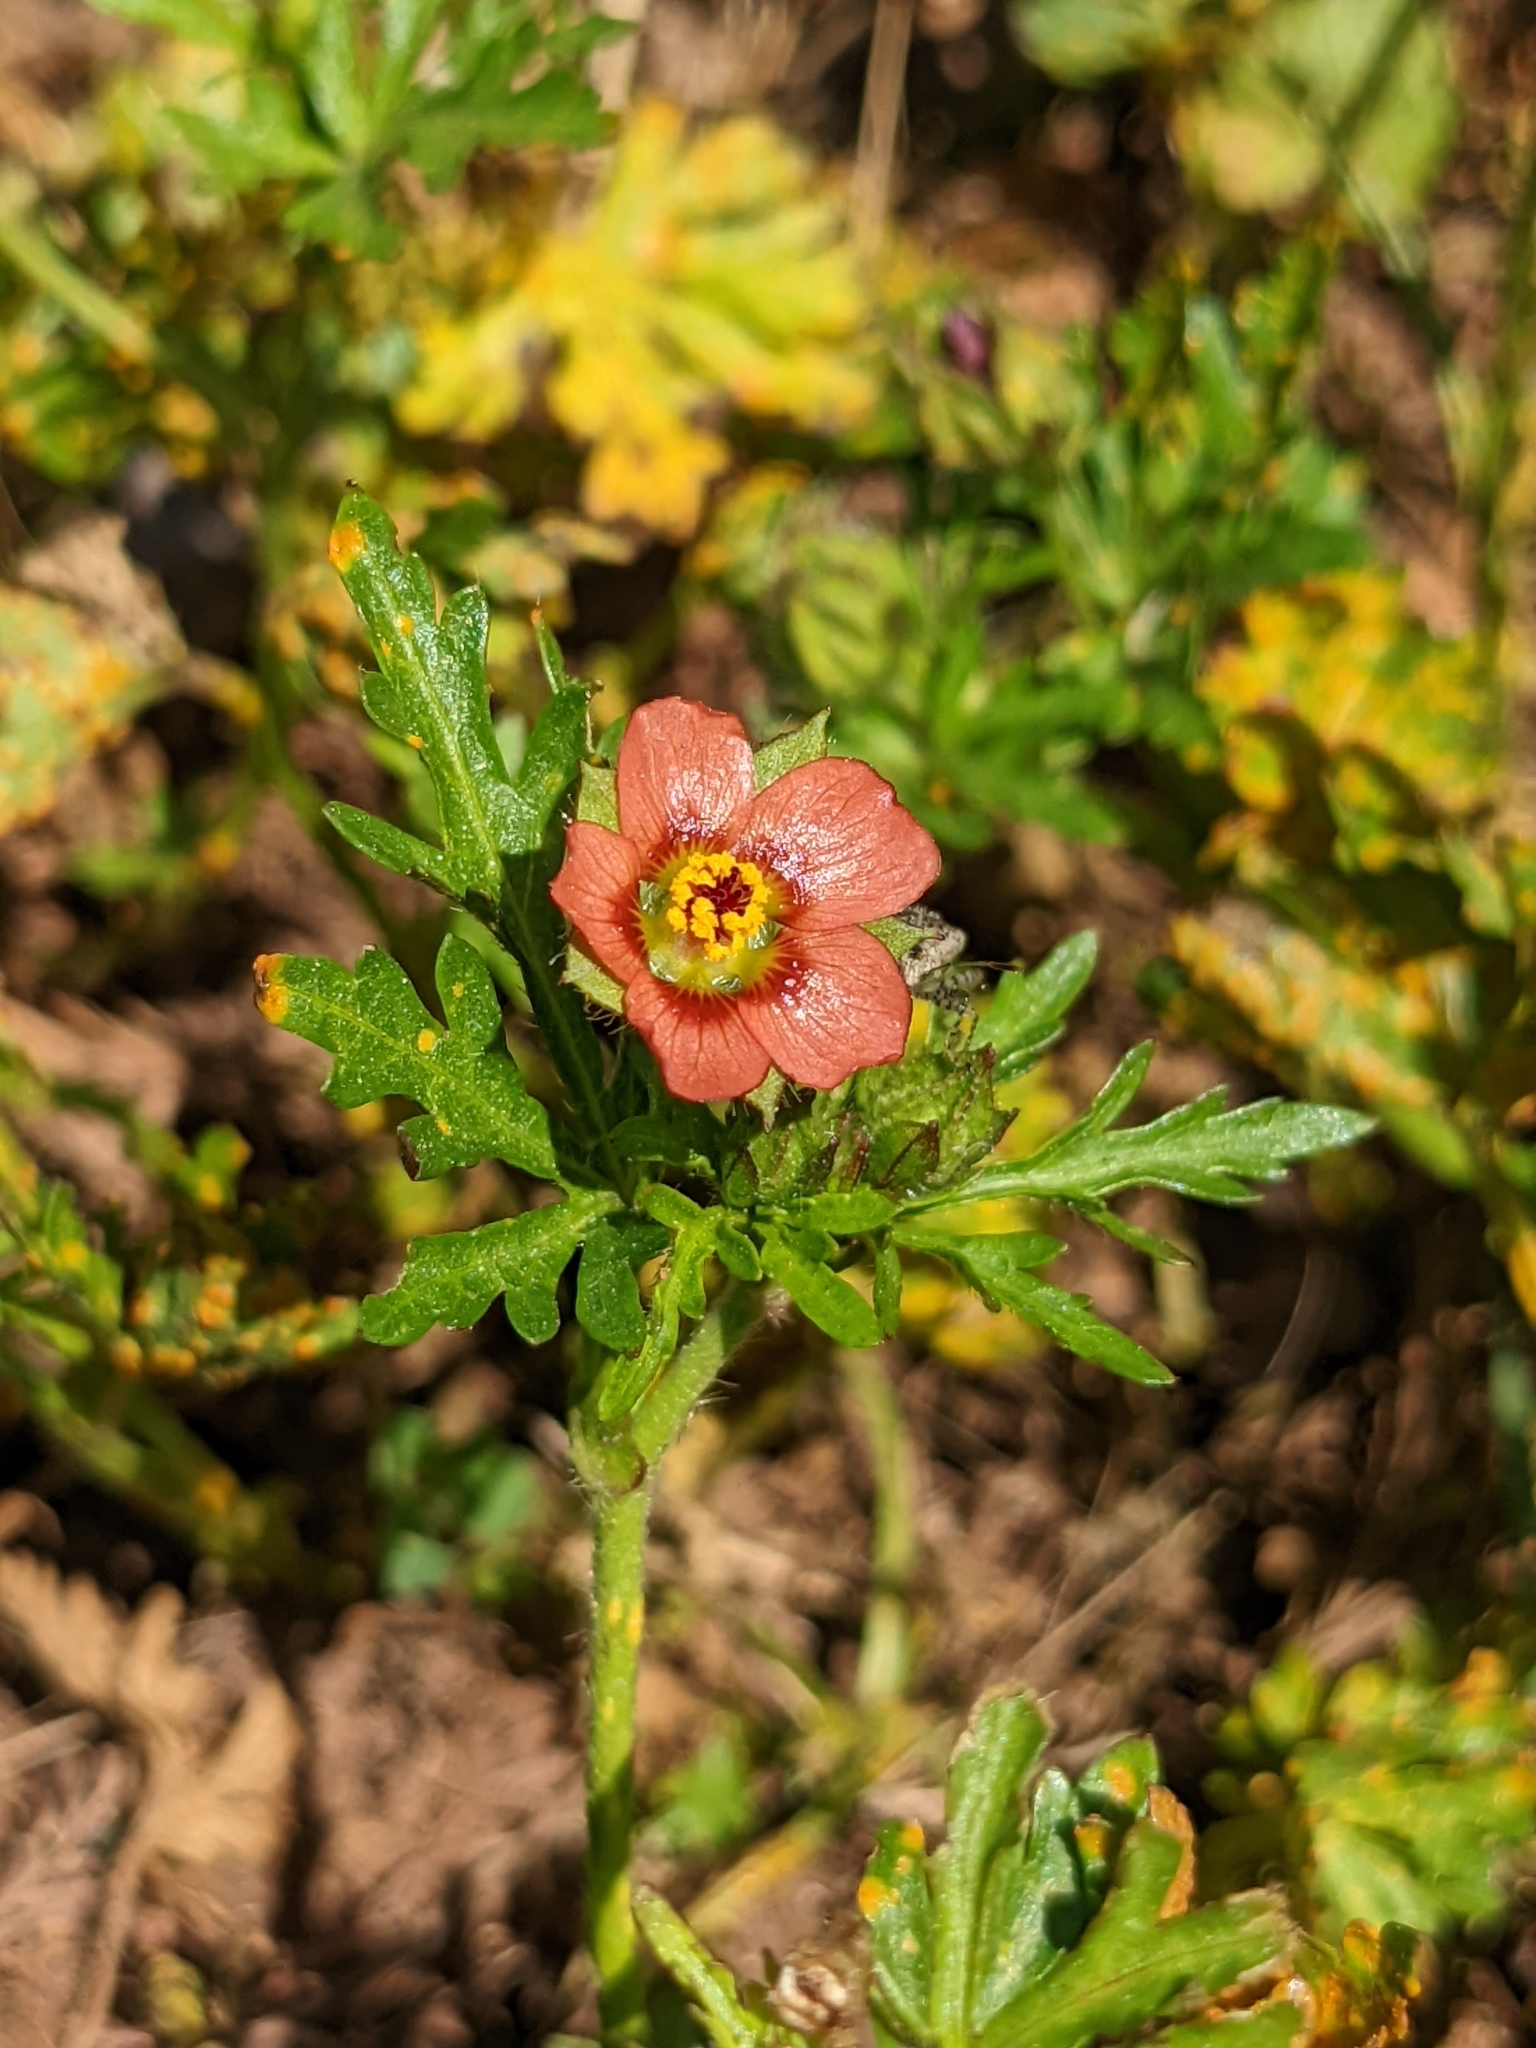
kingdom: Plantae
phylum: Tracheophyta
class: Magnoliopsida
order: Malvales
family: Malvaceae
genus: Modiola
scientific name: Modiola caroliniana
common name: Carolina bristlemallow
